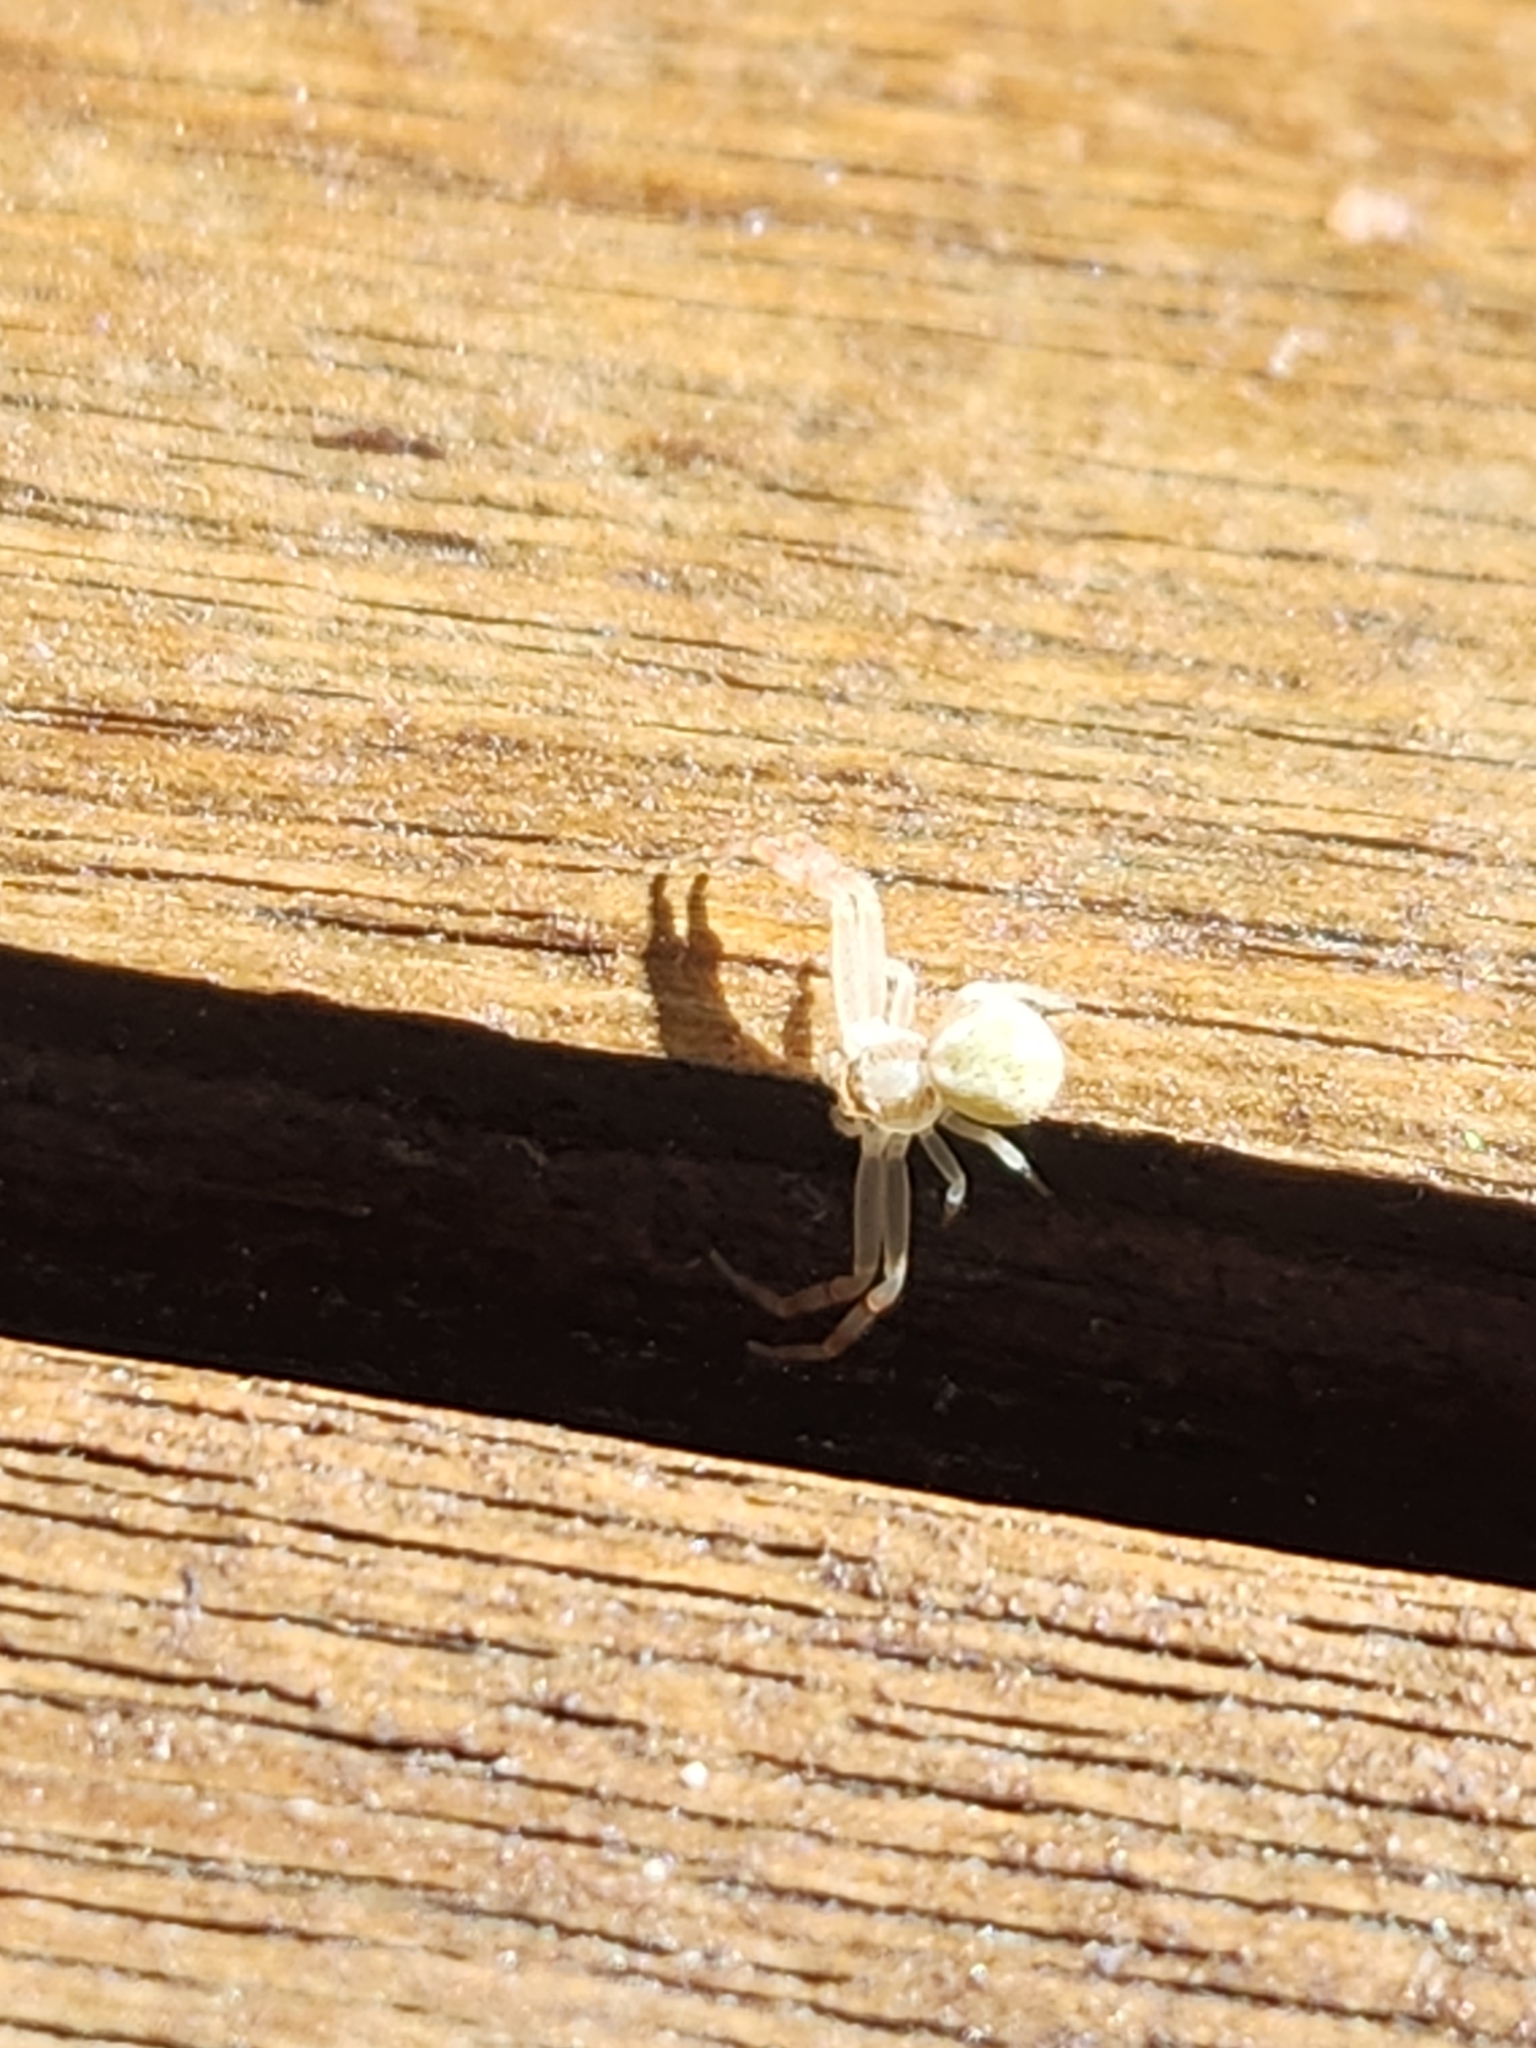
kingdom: Animalia
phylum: Arthropoda
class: Arachnida
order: Araneae
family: Thomisidae
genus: Misumena
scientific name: Misumena vatia
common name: Goldenrod crab spider
